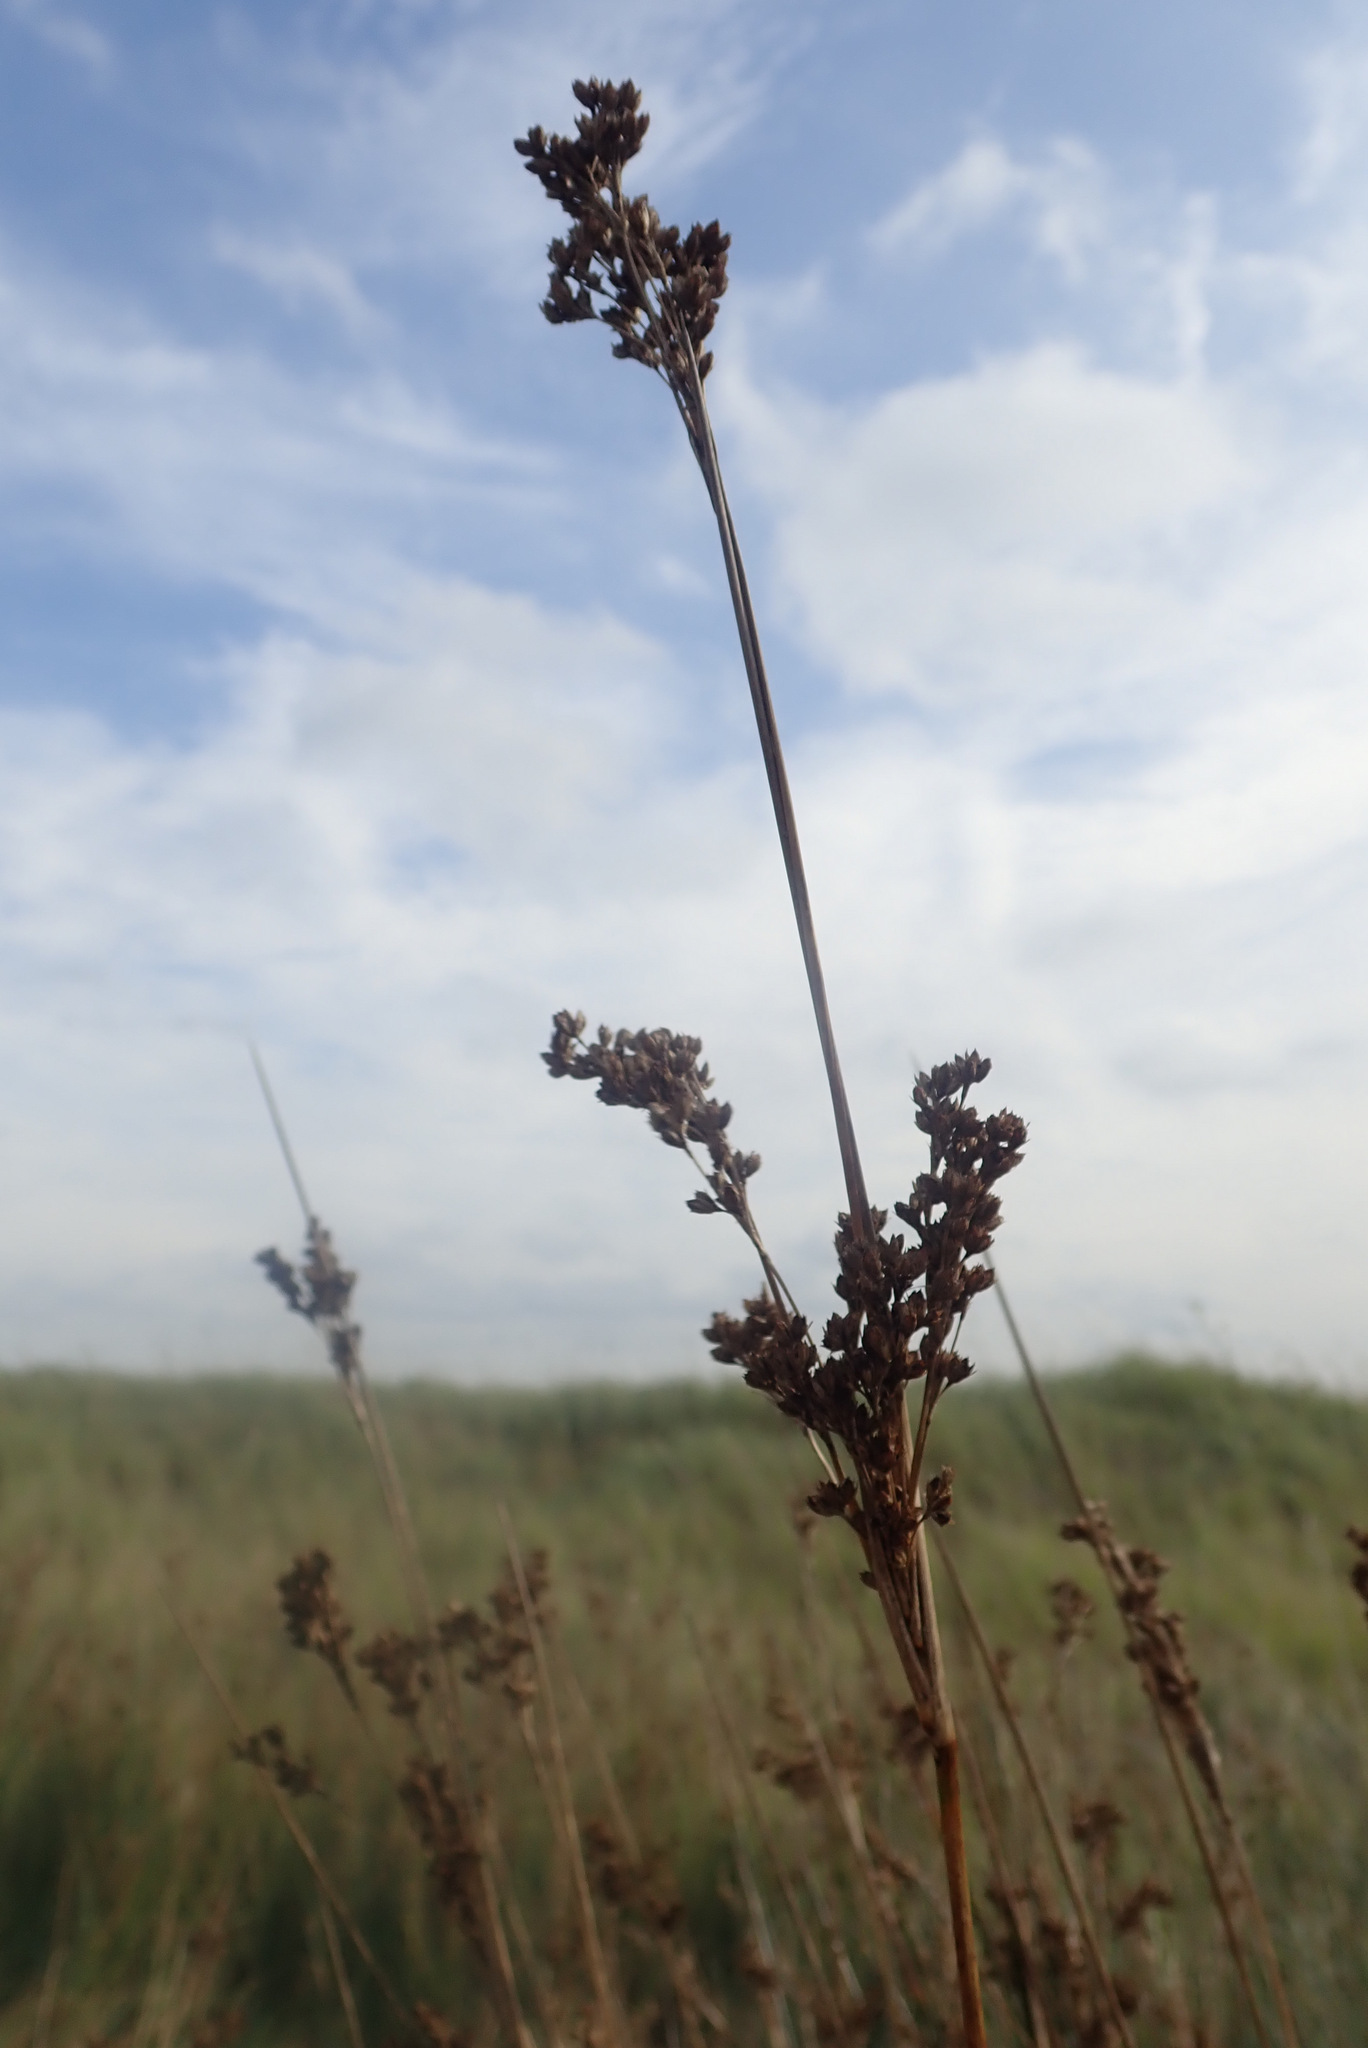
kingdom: Plantae
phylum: Tracheophyta
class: Liliopsida
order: Poales
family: Juncaceae
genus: Juncus
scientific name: Juncus maritimus
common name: Sea rush
